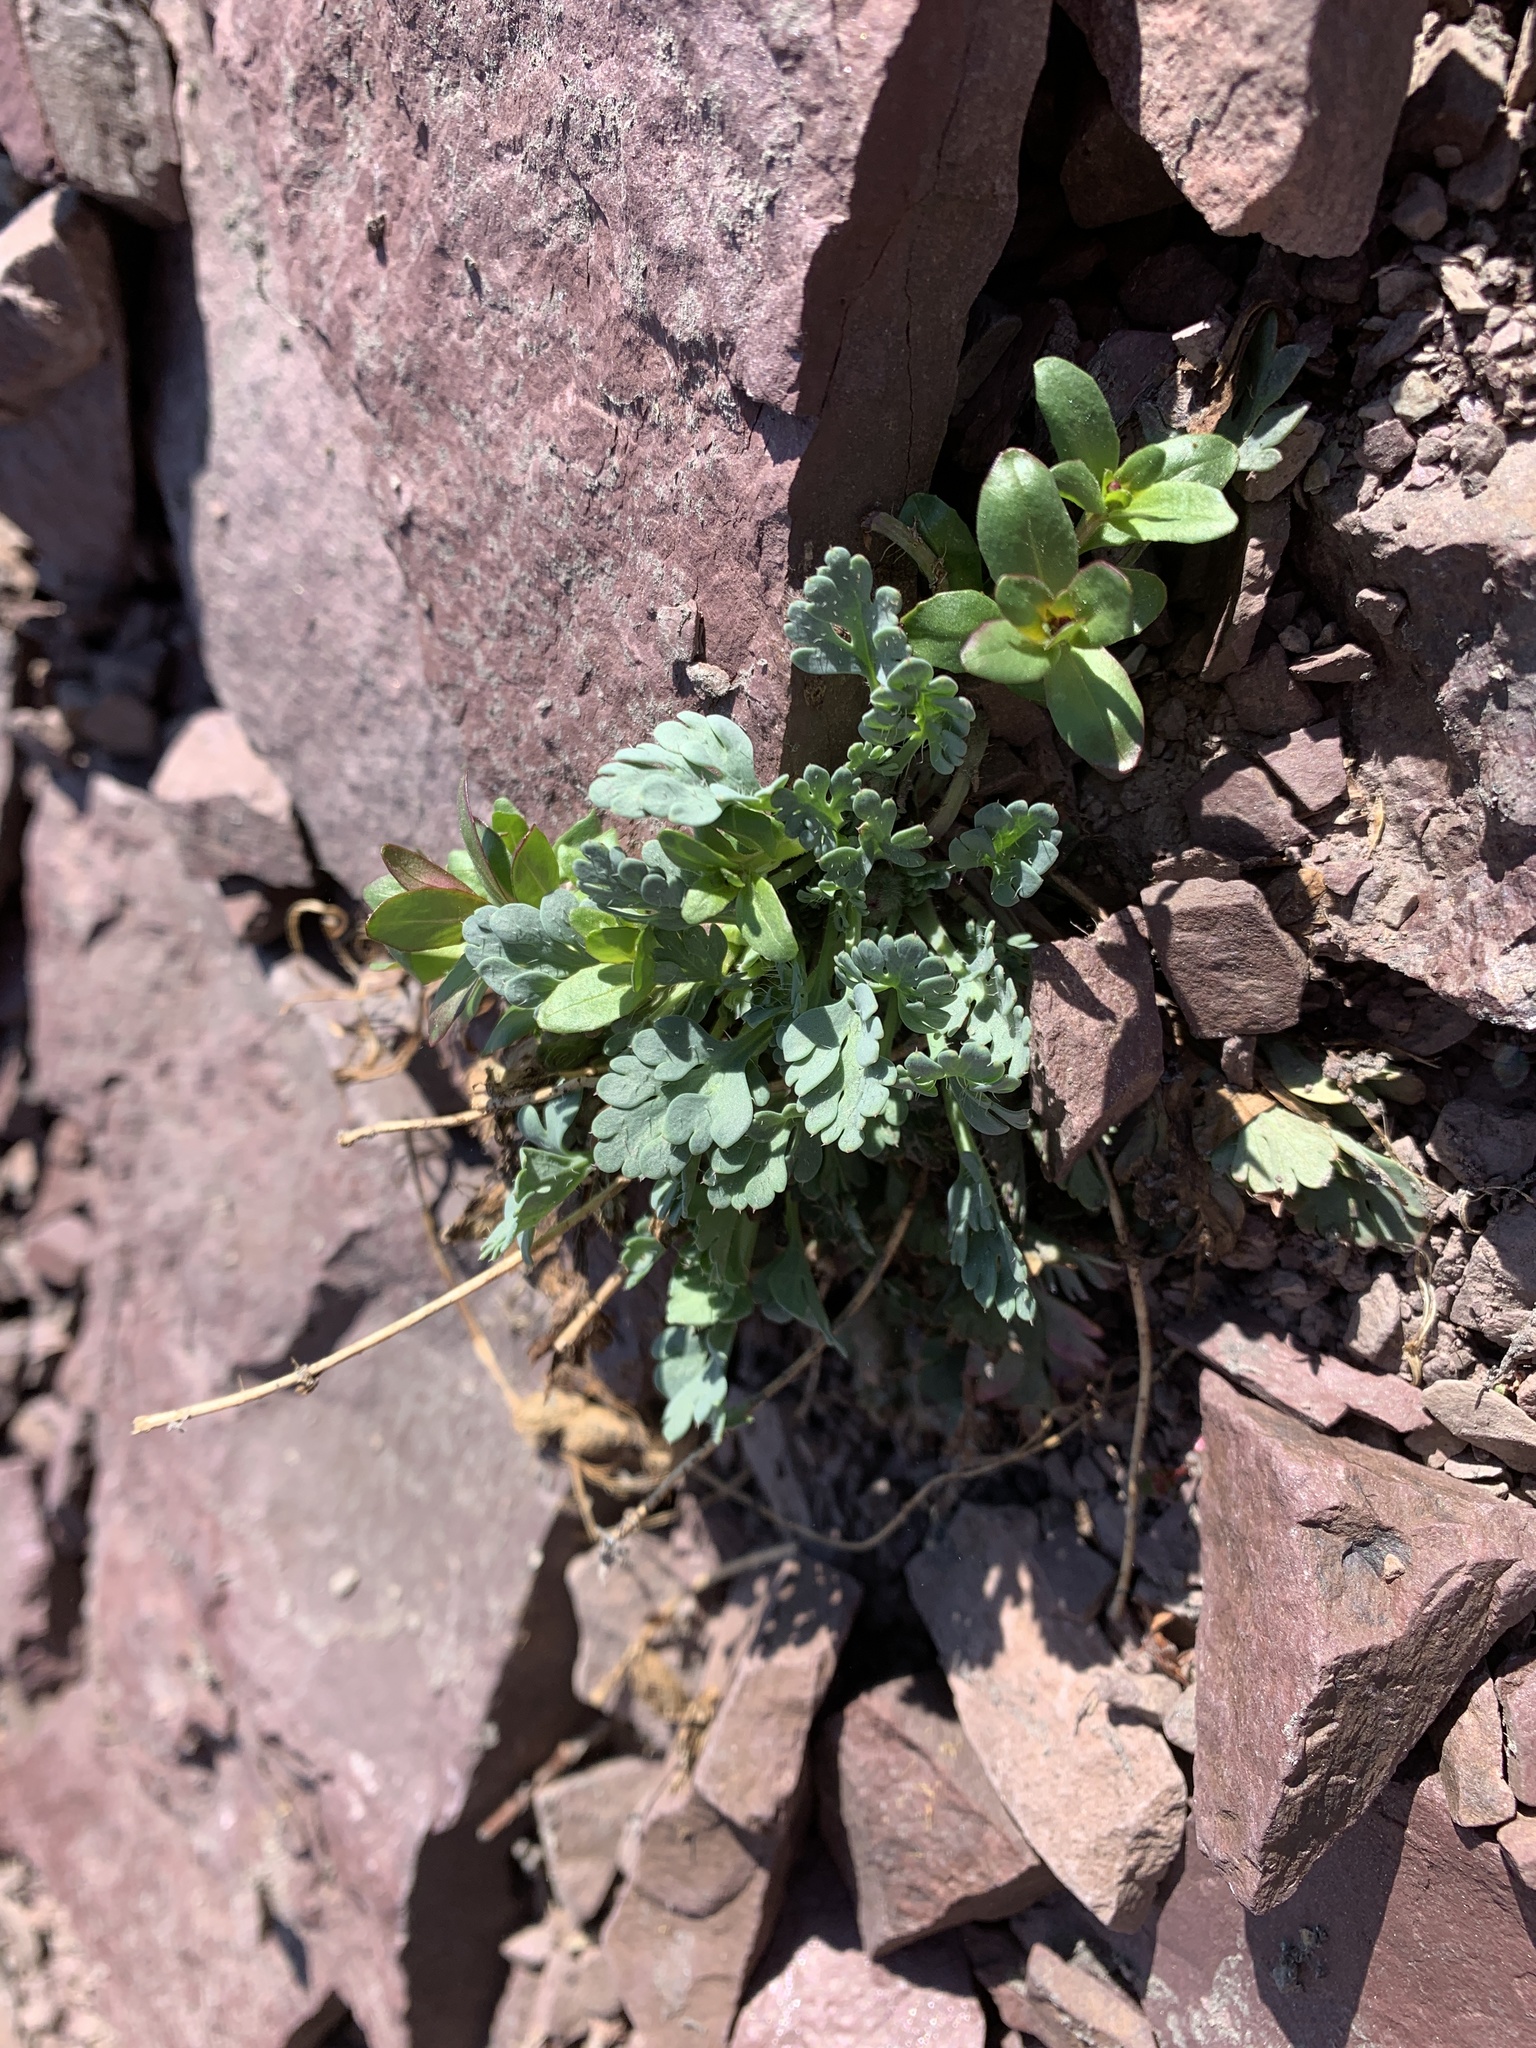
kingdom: Plantae
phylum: Tracheophyta
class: Magnoliopsida
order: Ranunculales
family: Papaveraceae
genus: Papaver
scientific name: Papaver pygmaeum
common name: Alpine glacier poppy
